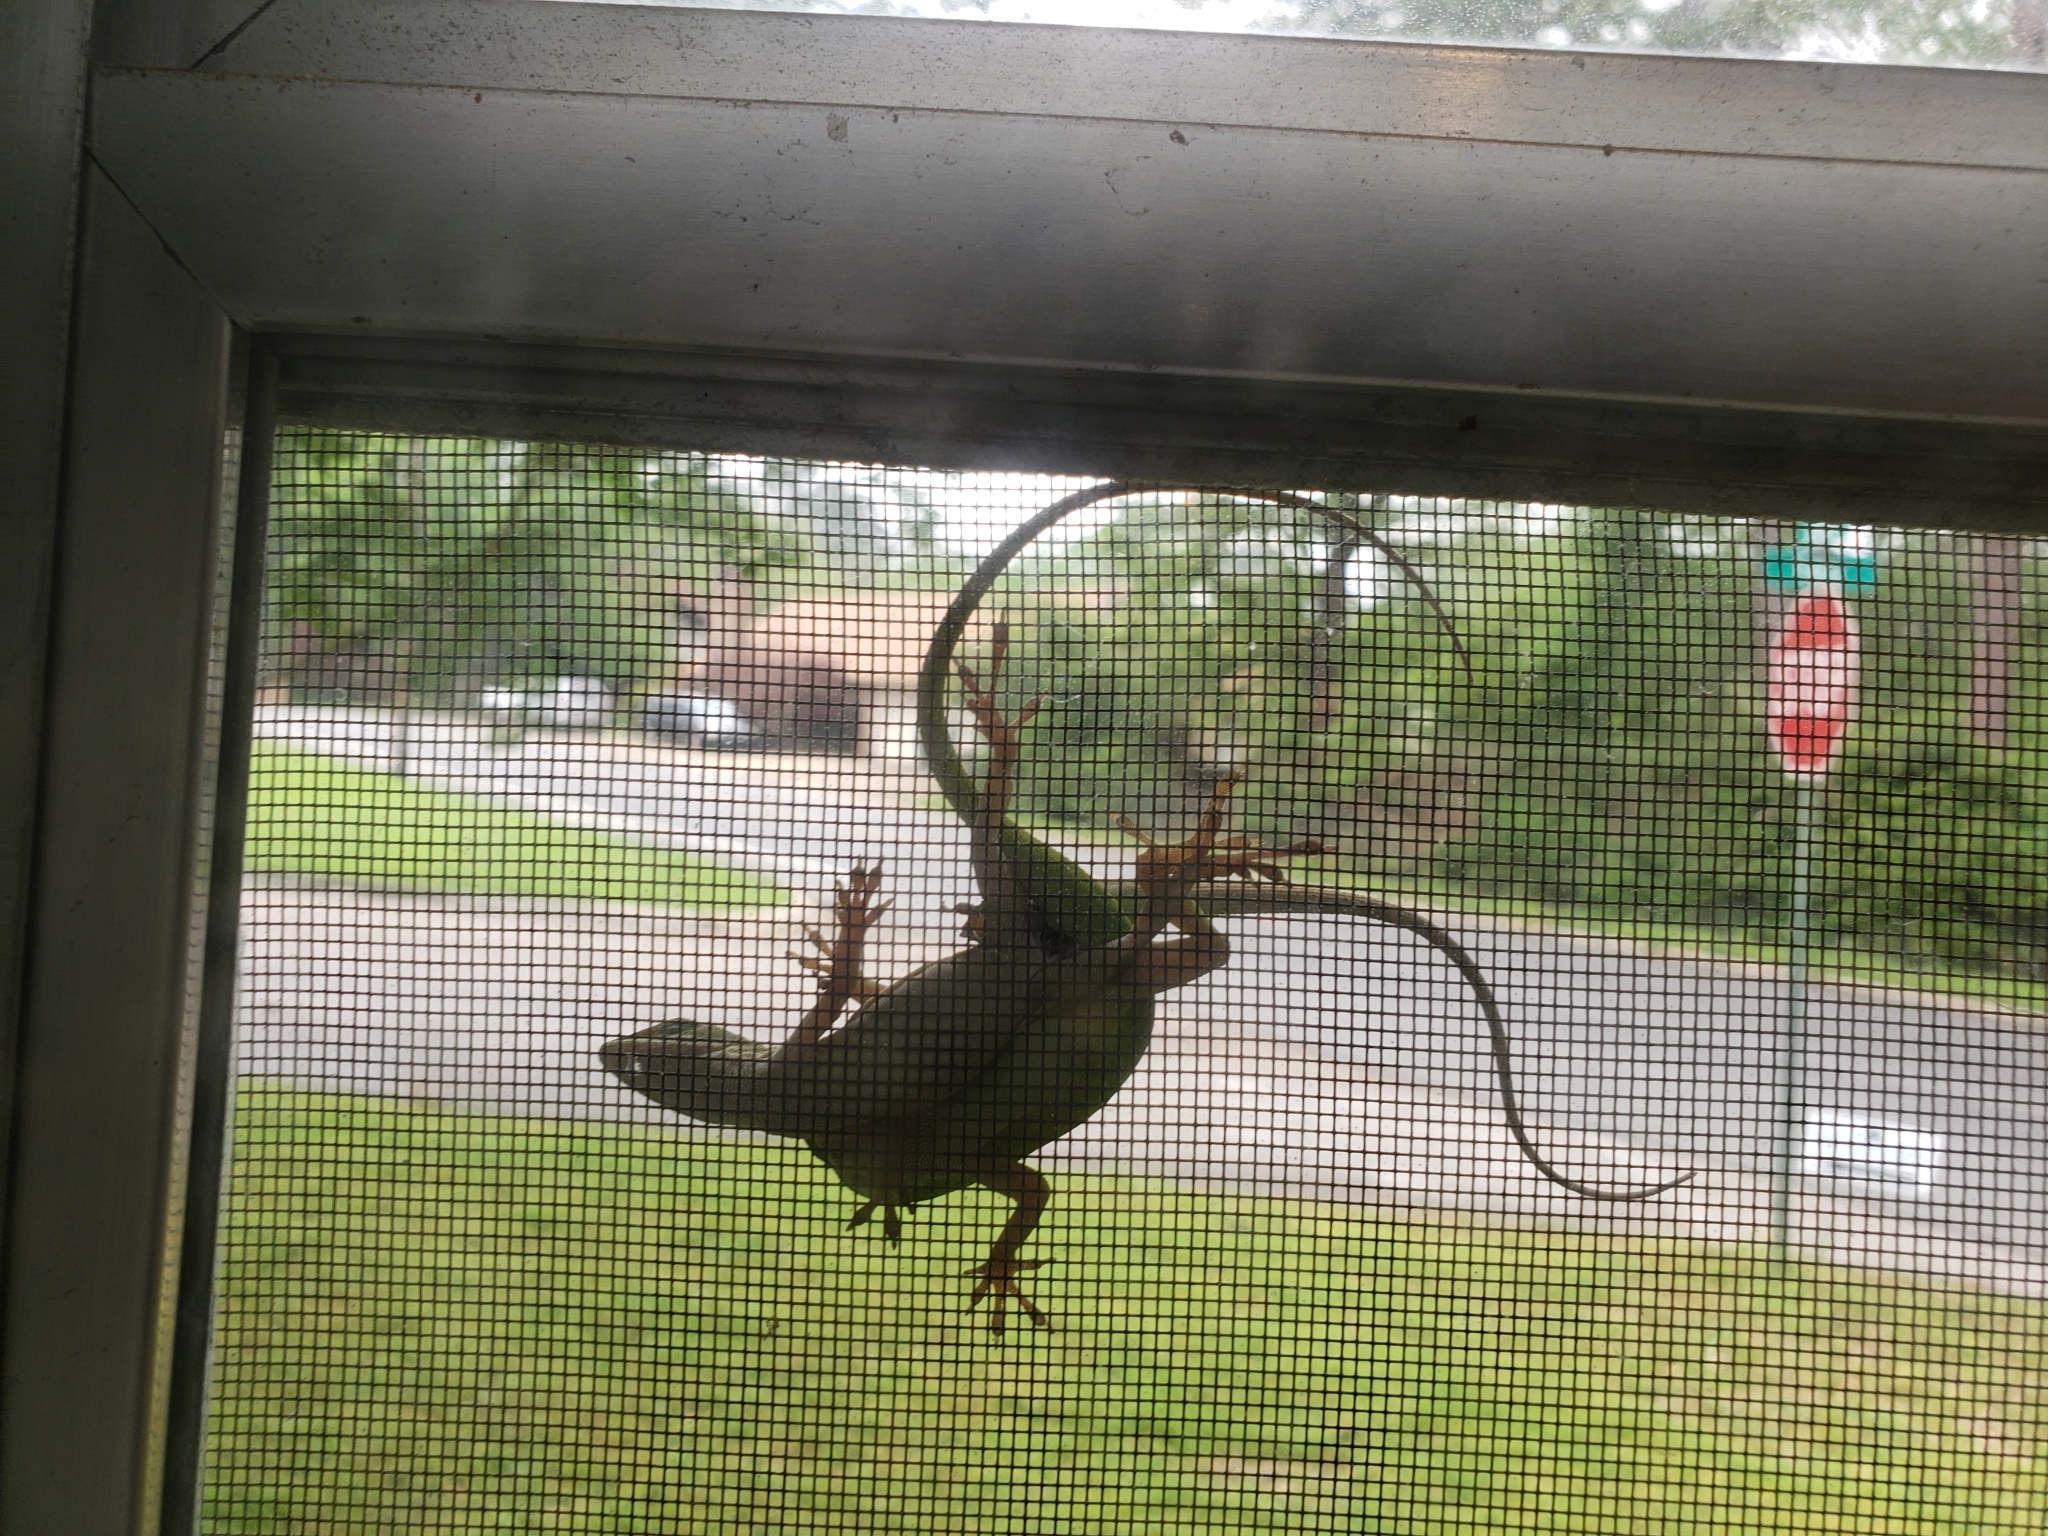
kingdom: Animalia
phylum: Chordata
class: Squamata
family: Dactyloidae
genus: Anolis
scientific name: Anolis carolinensis
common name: Green anole
